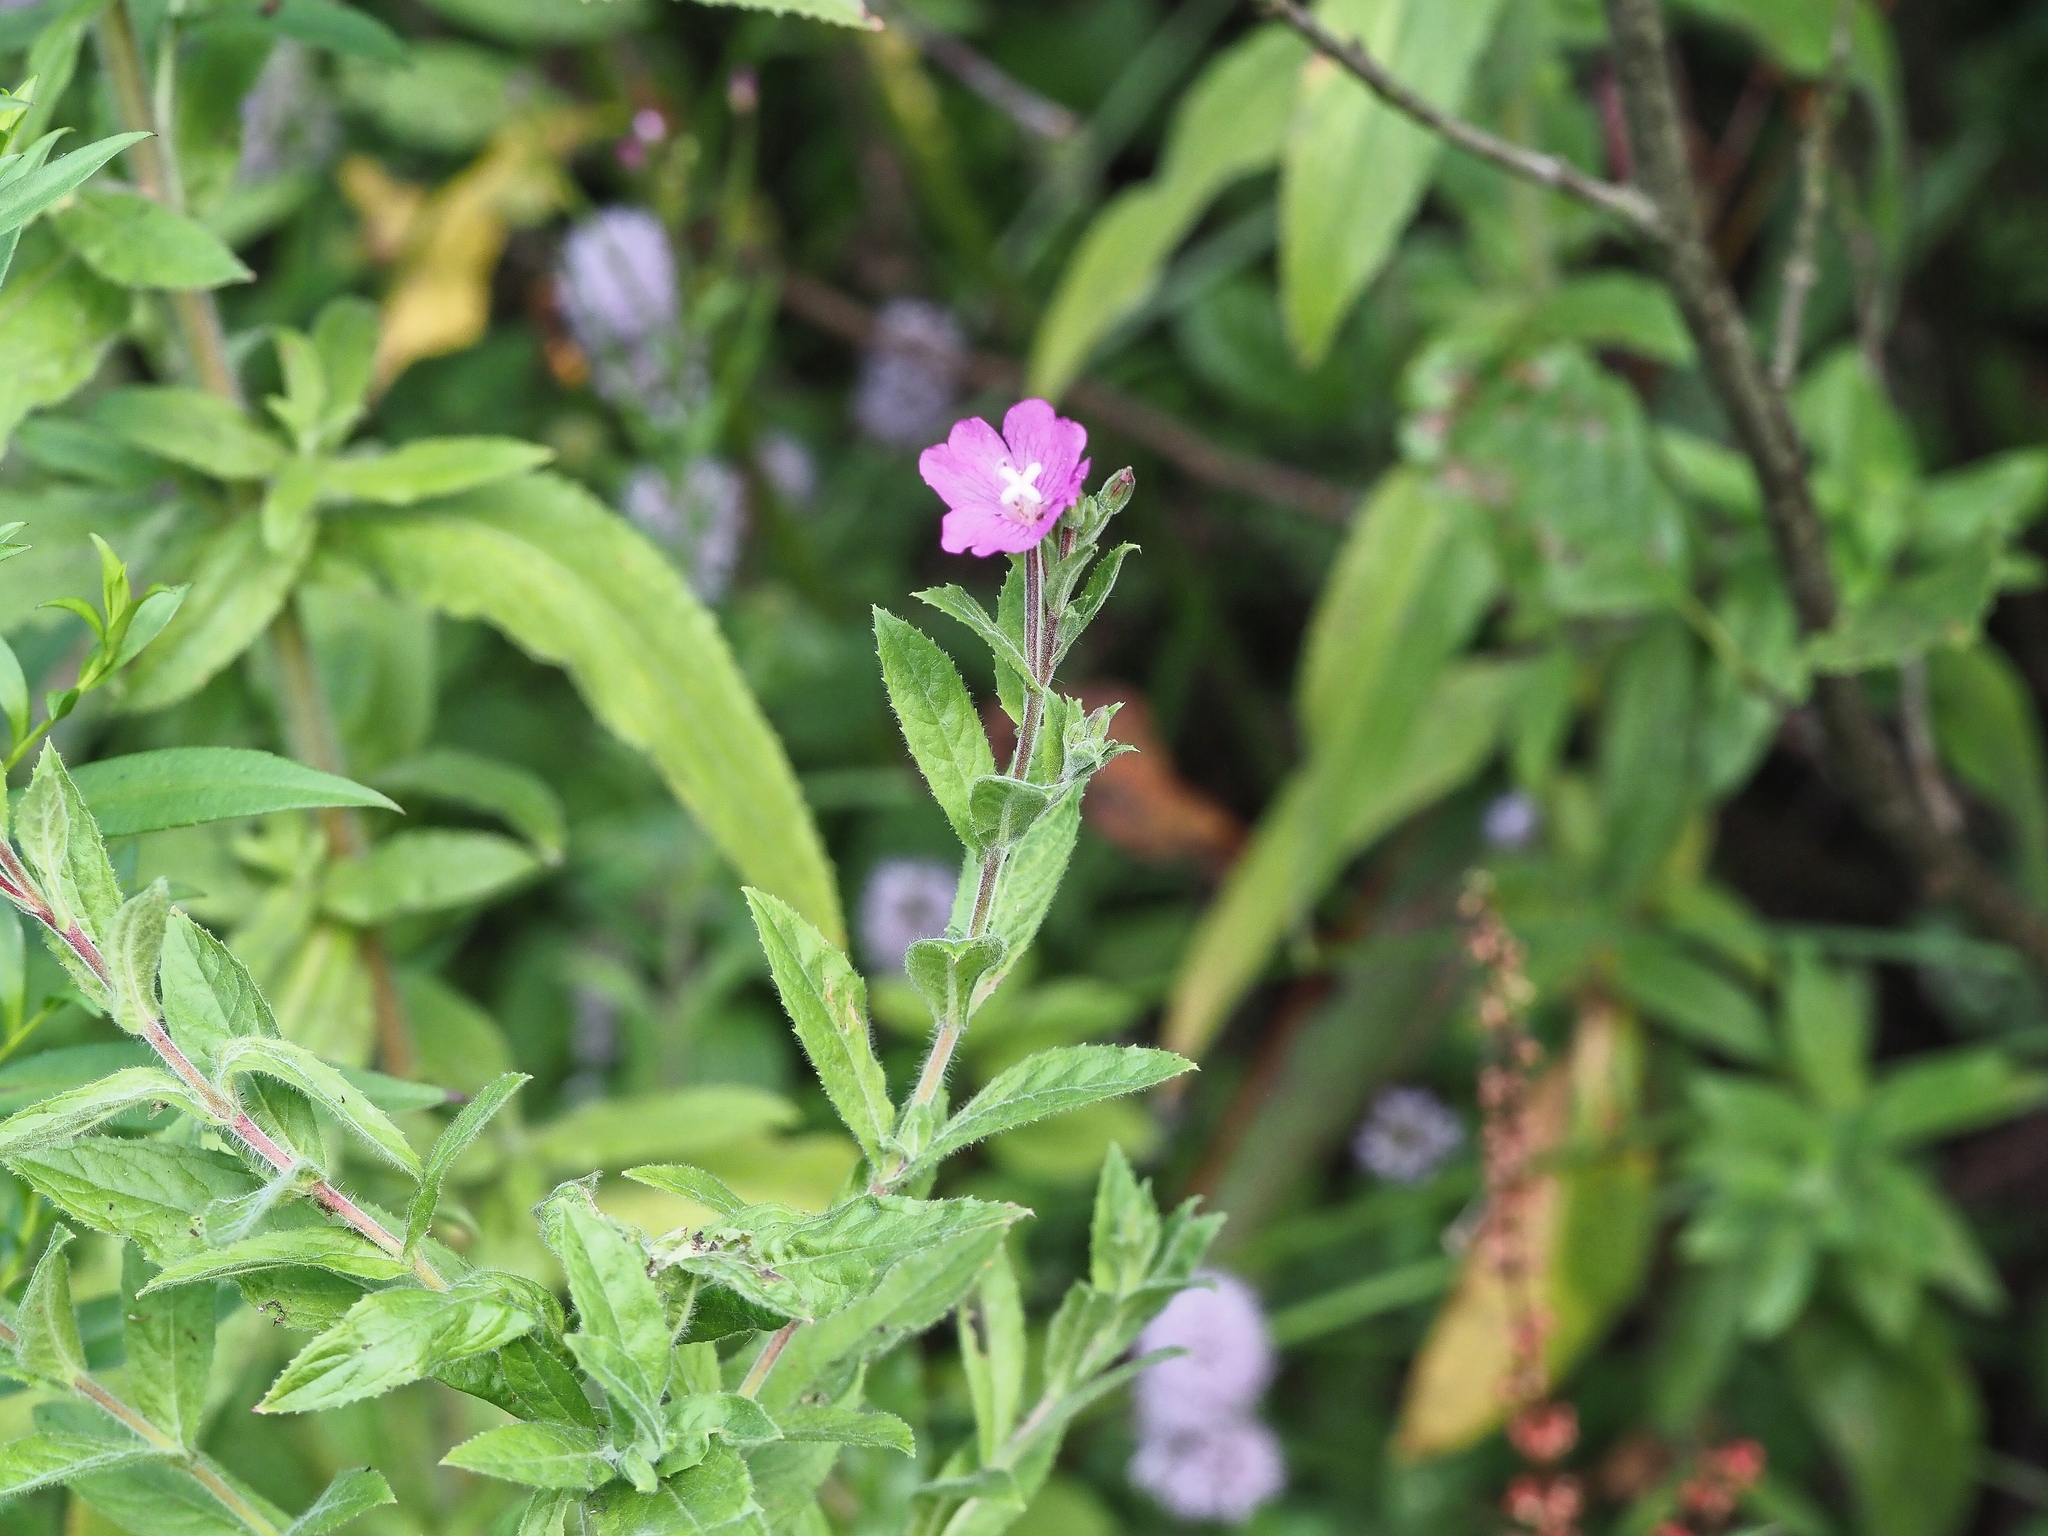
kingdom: Plantae
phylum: Tracheophyta
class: Magnoliopsida
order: Myrtales
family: Onagraceae
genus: Epilobium
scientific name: Epilobium hirsutum
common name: Great willowherb
